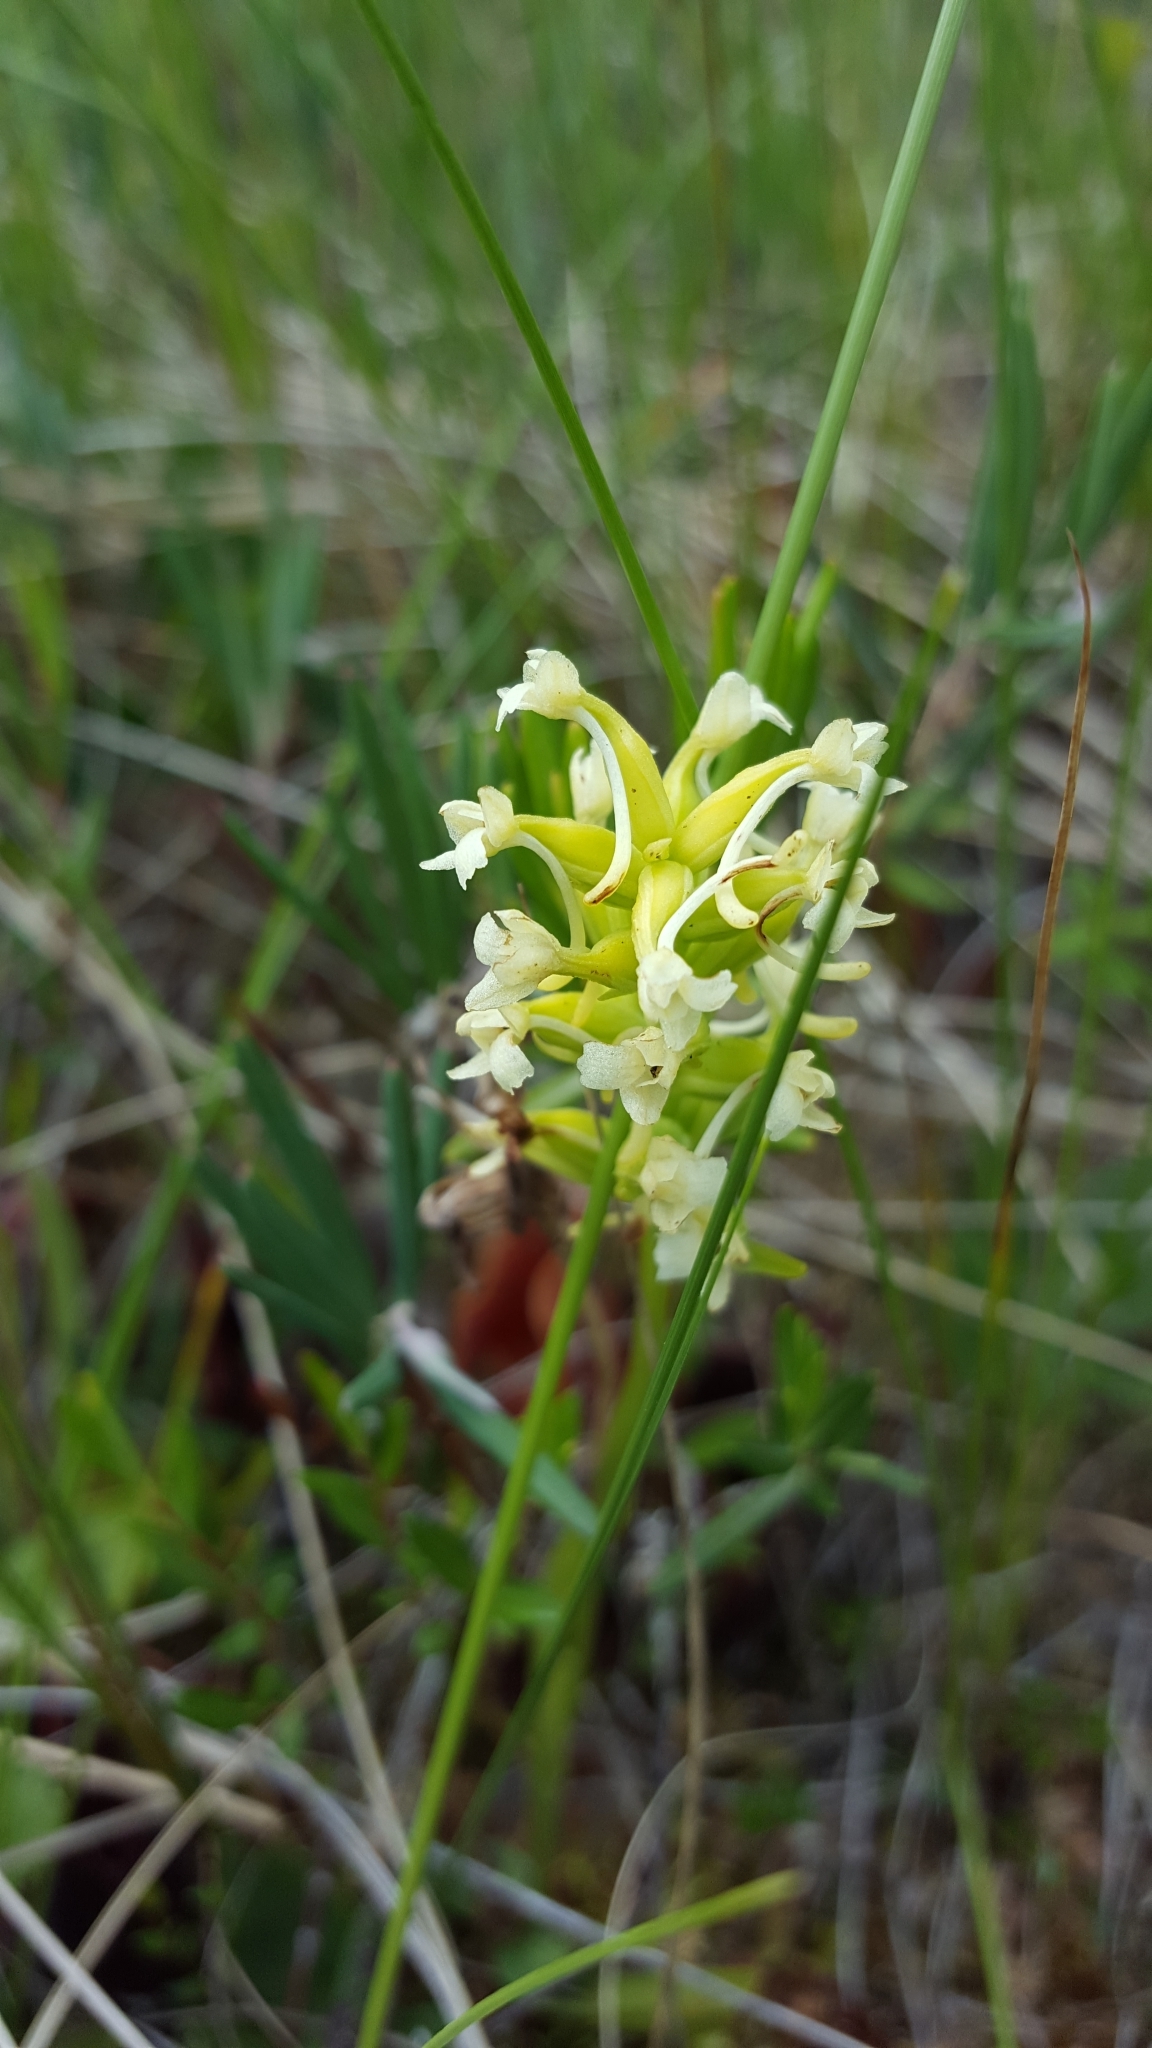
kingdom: Plantae
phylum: Tracheophyta
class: Liliopsida
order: Asparagales
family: Orchidaceae
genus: Platanthera
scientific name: Platanthera clavellata
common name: Club-spur orchid
